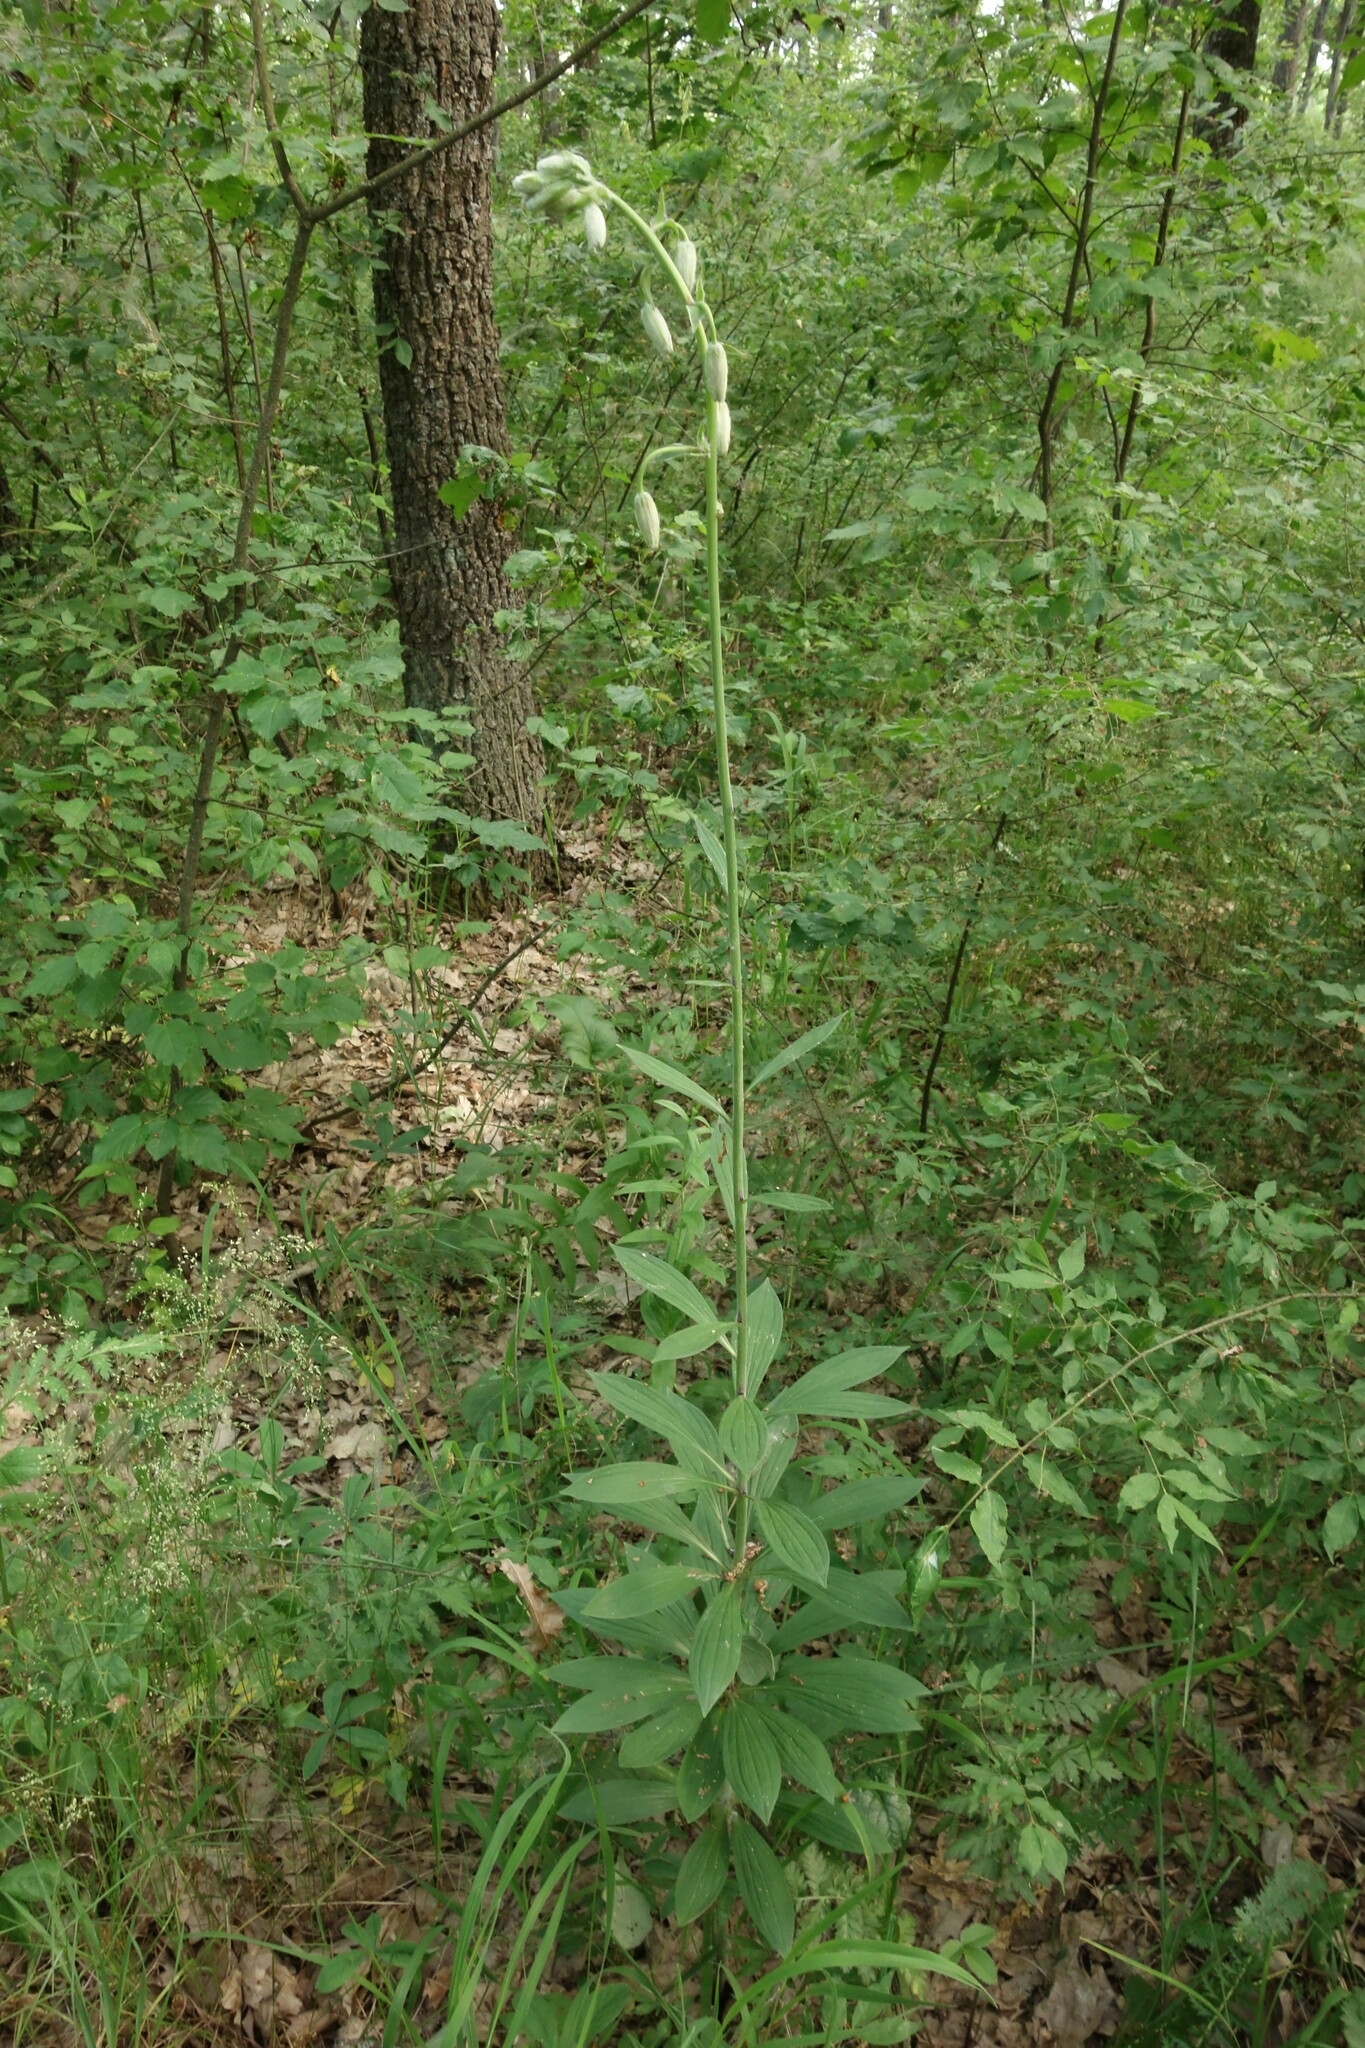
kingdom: Plantae
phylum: Tracheophyta
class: Liliopsida
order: Liliales
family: Liliaceae
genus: Lilium
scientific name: Lilium martagon
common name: Martagon lily
